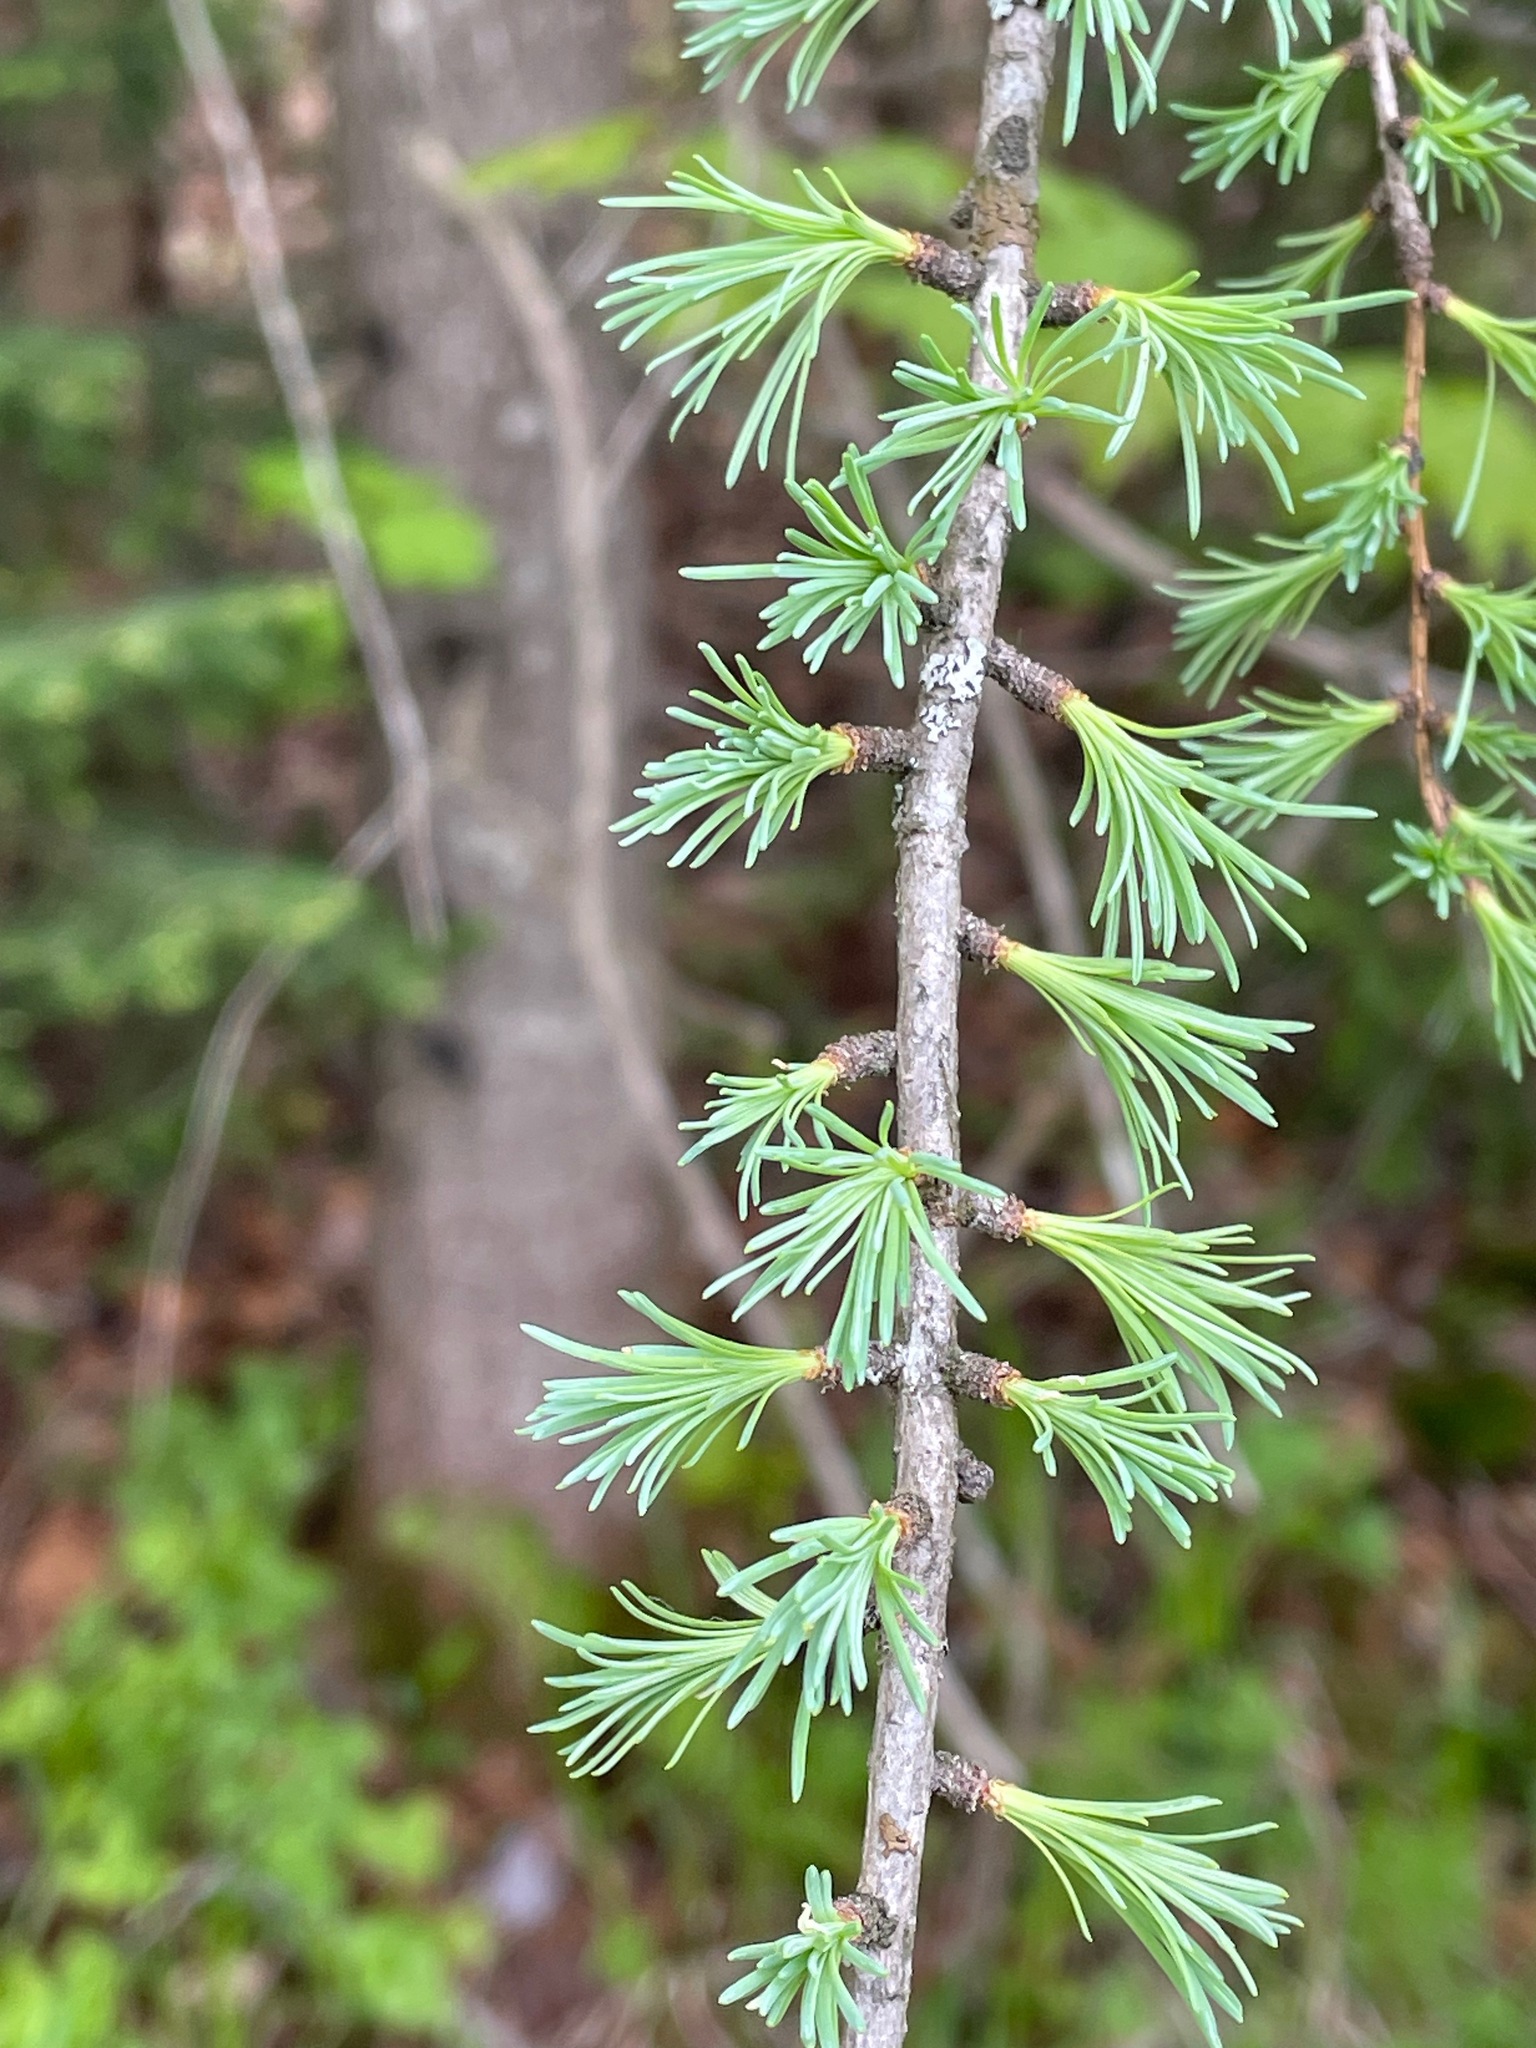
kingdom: Plantae
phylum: Tracheophyta
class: Pinopsida
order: Pinales
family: Pinaceae
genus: Larix
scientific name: Larix laricina
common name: American larch
